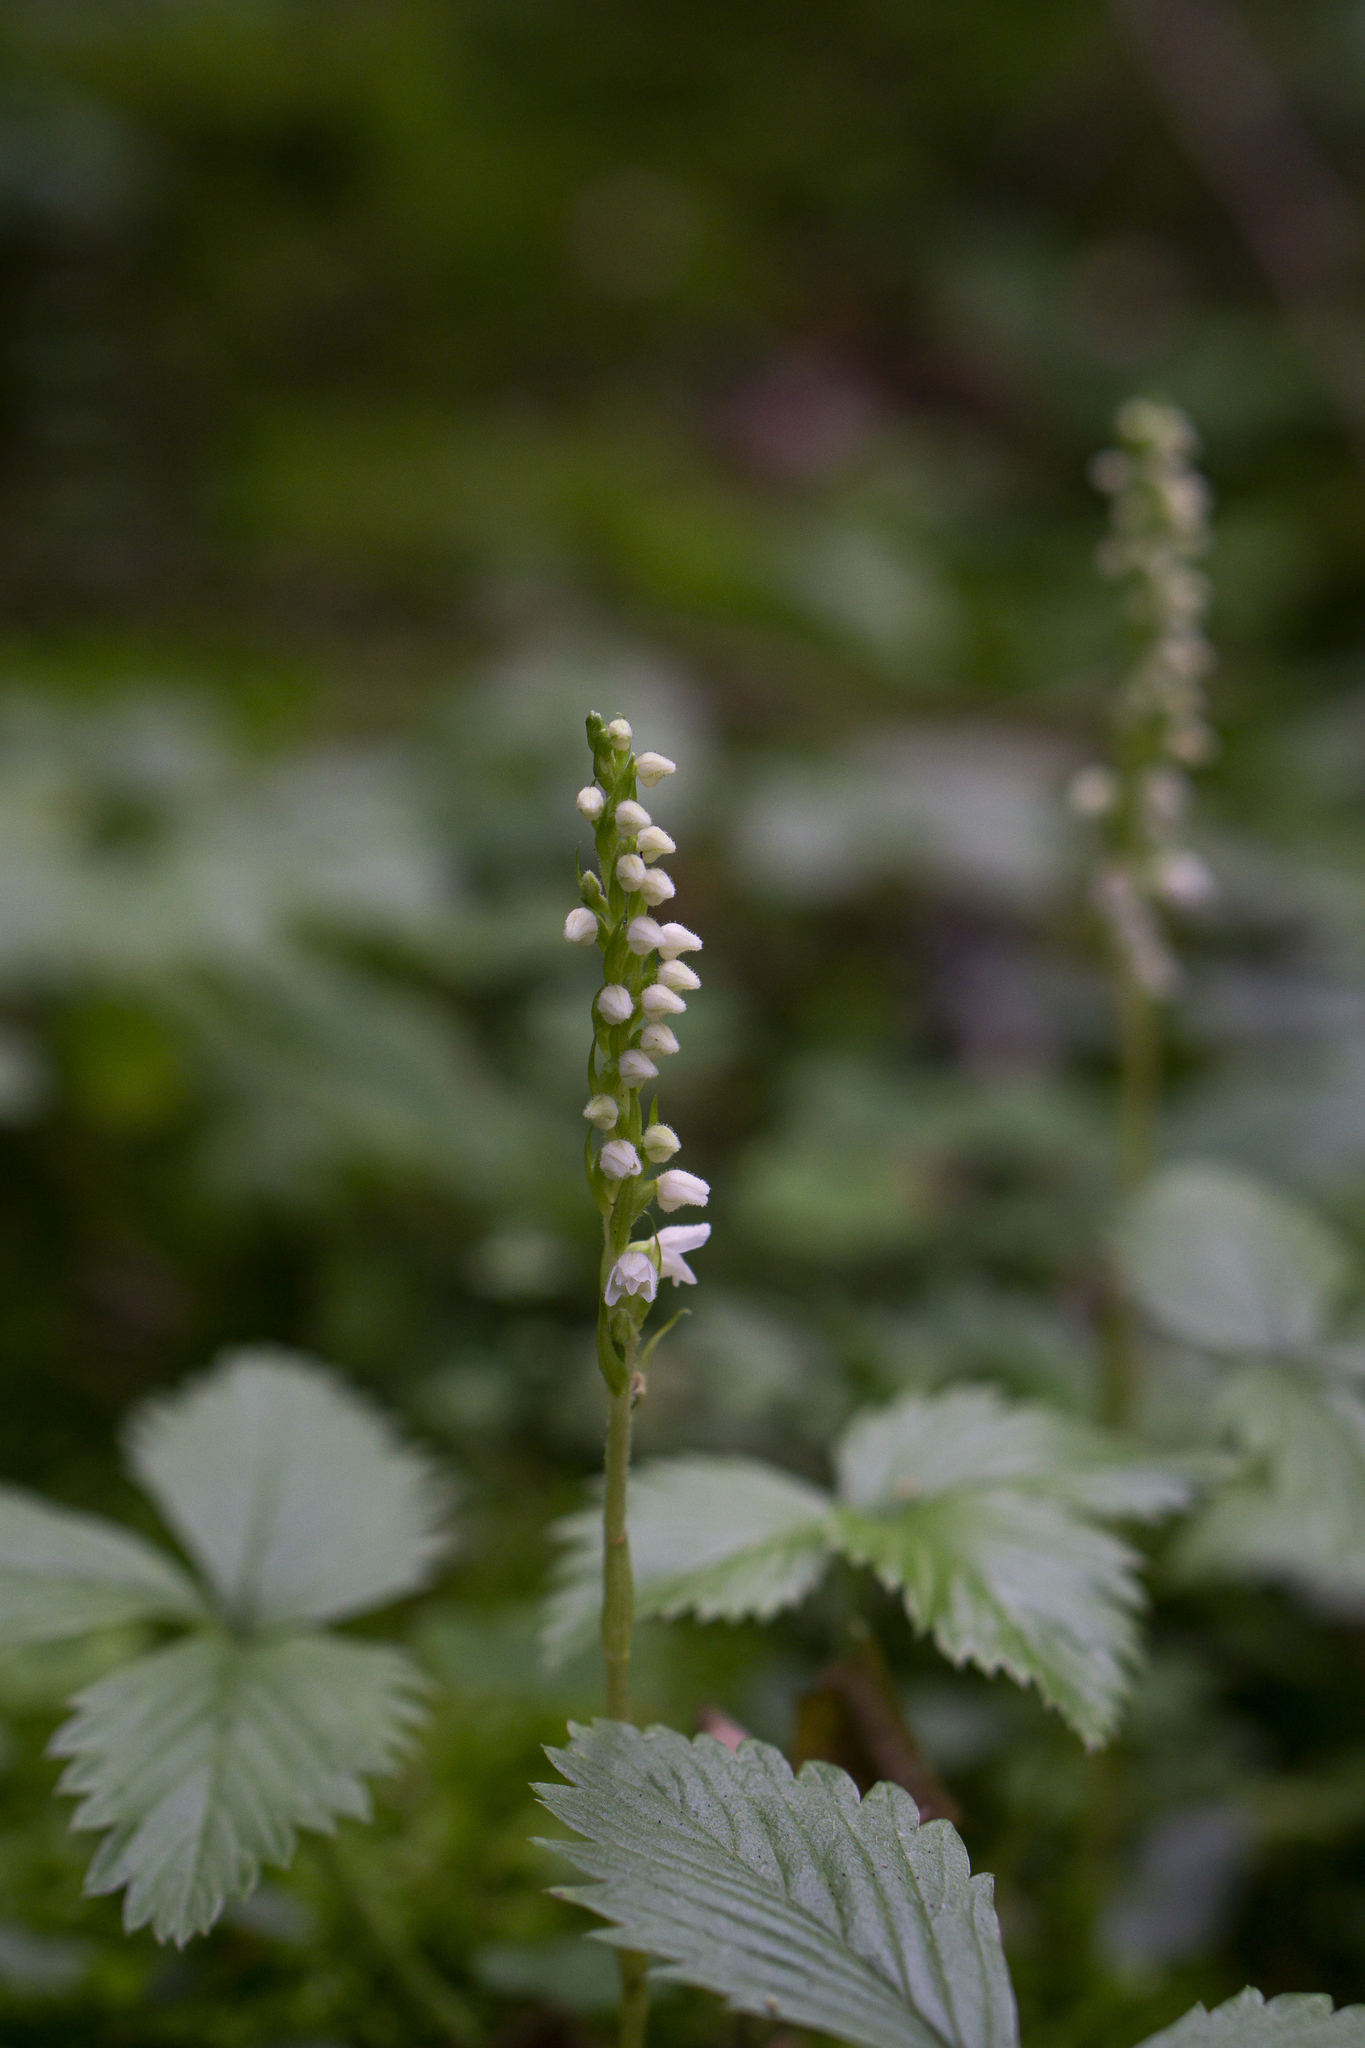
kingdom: Plantae
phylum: Tracheophyta
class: Liliopsida
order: Asparagales
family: Orchidaceae
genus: Goodyera
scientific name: Goodyera repens
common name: Creeping lady's-tresses
